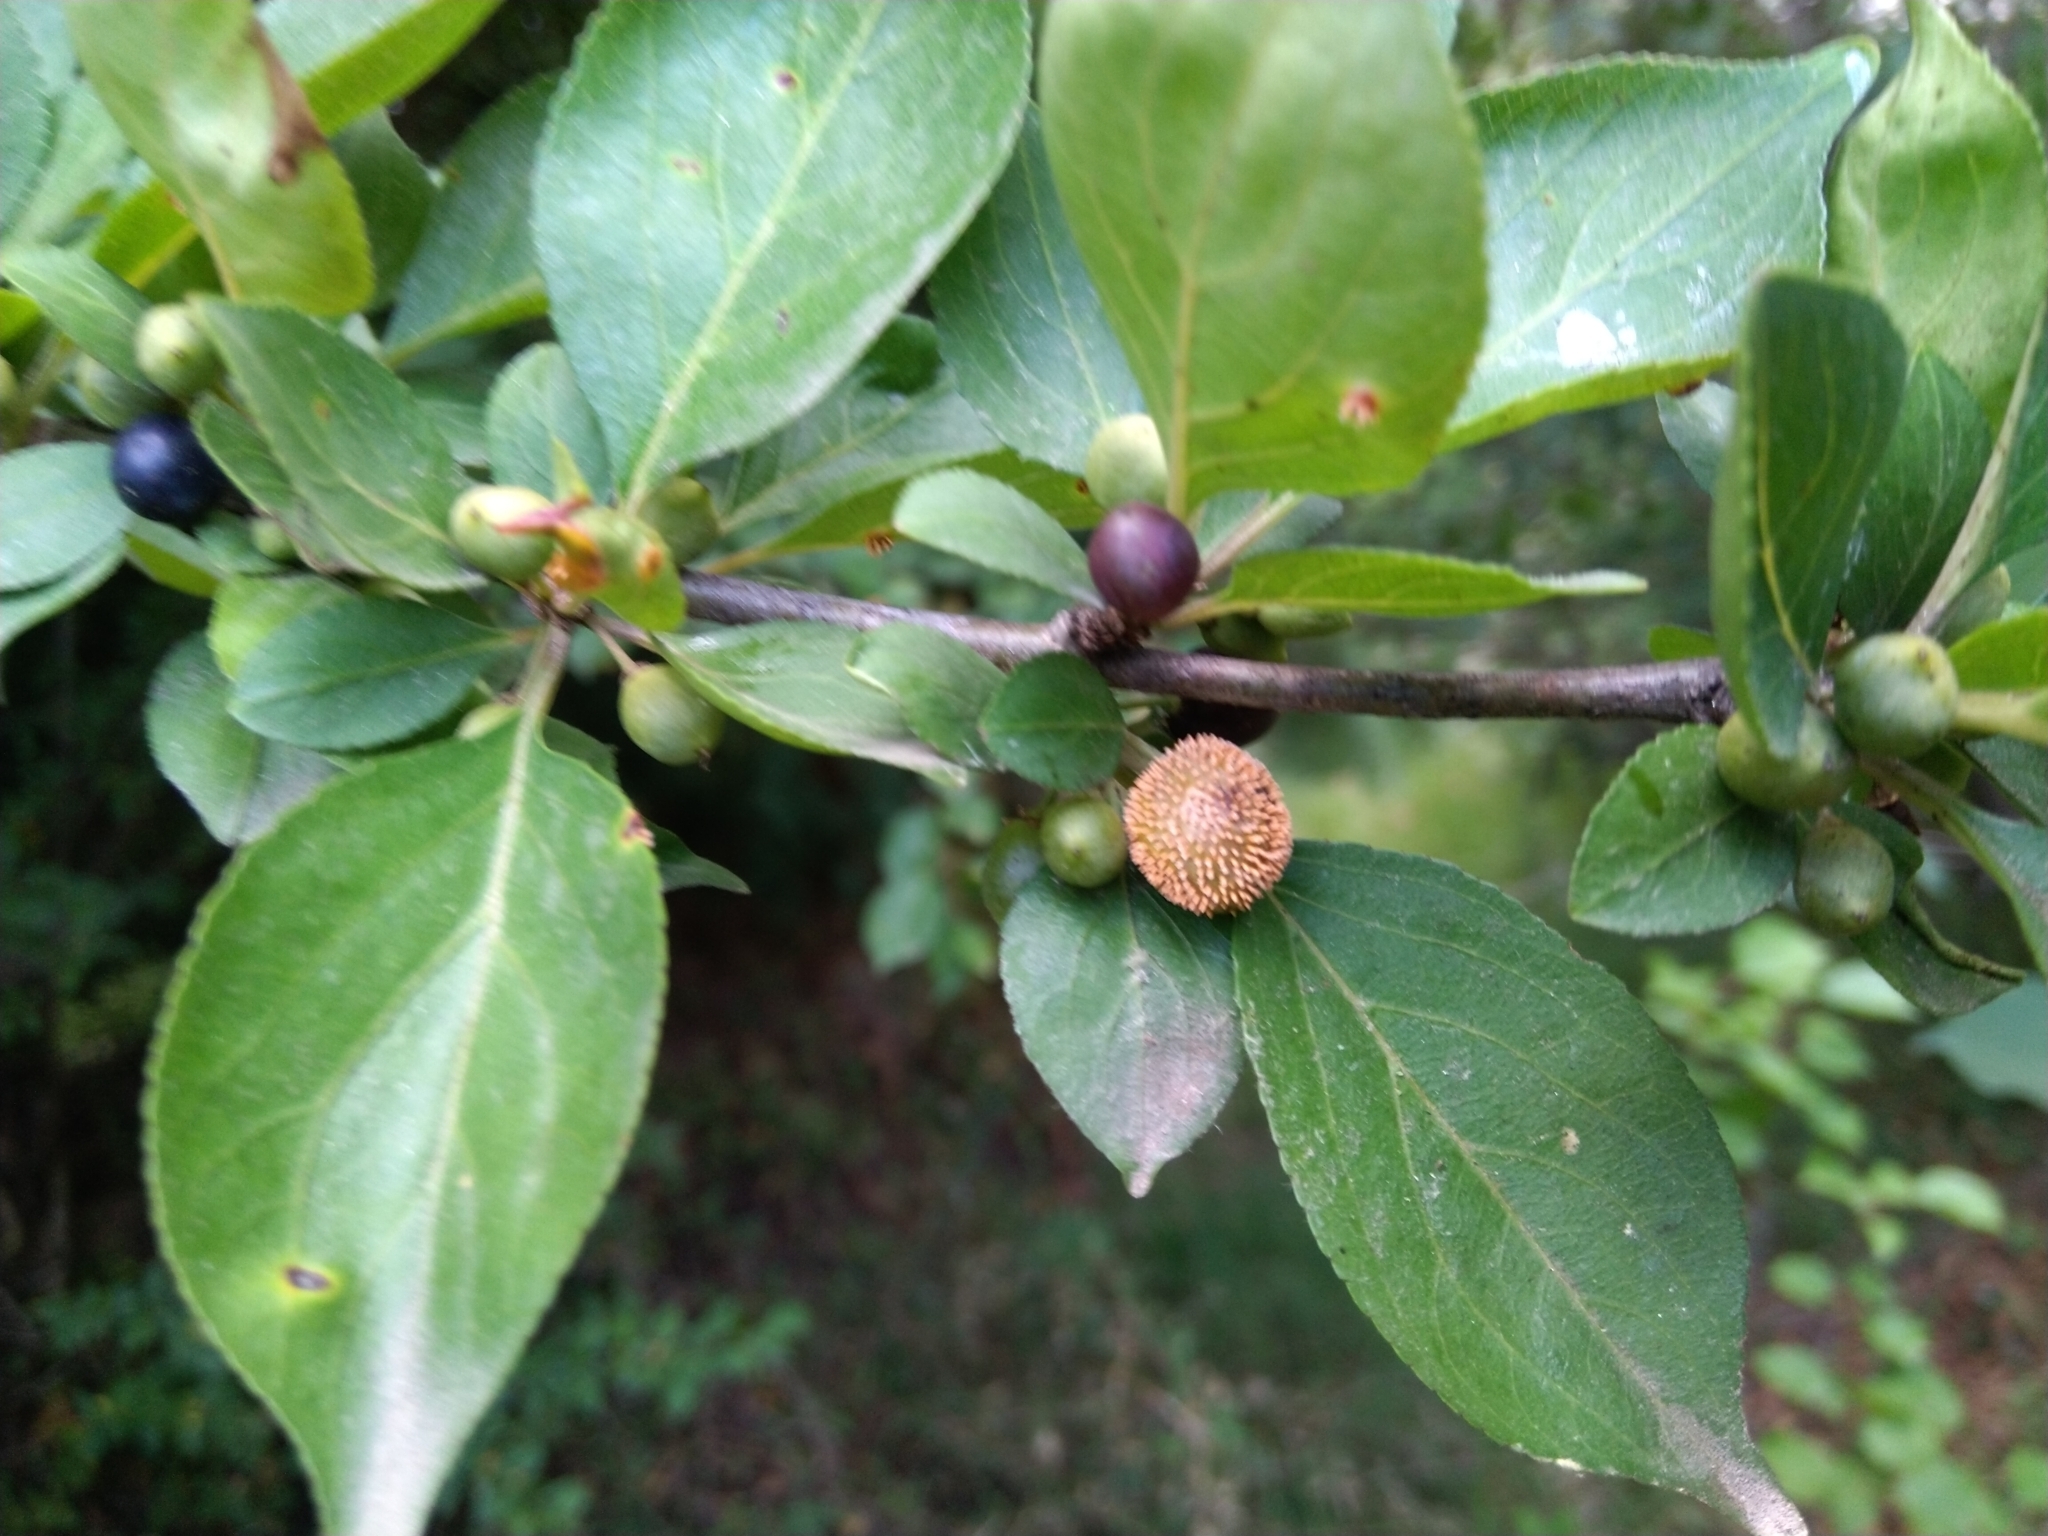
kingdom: Plantae
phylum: Tracheophyta
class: Magnoliopsida
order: Rosales
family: Rhamnaceae
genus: Rhamnus
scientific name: Rhamnus virgata
